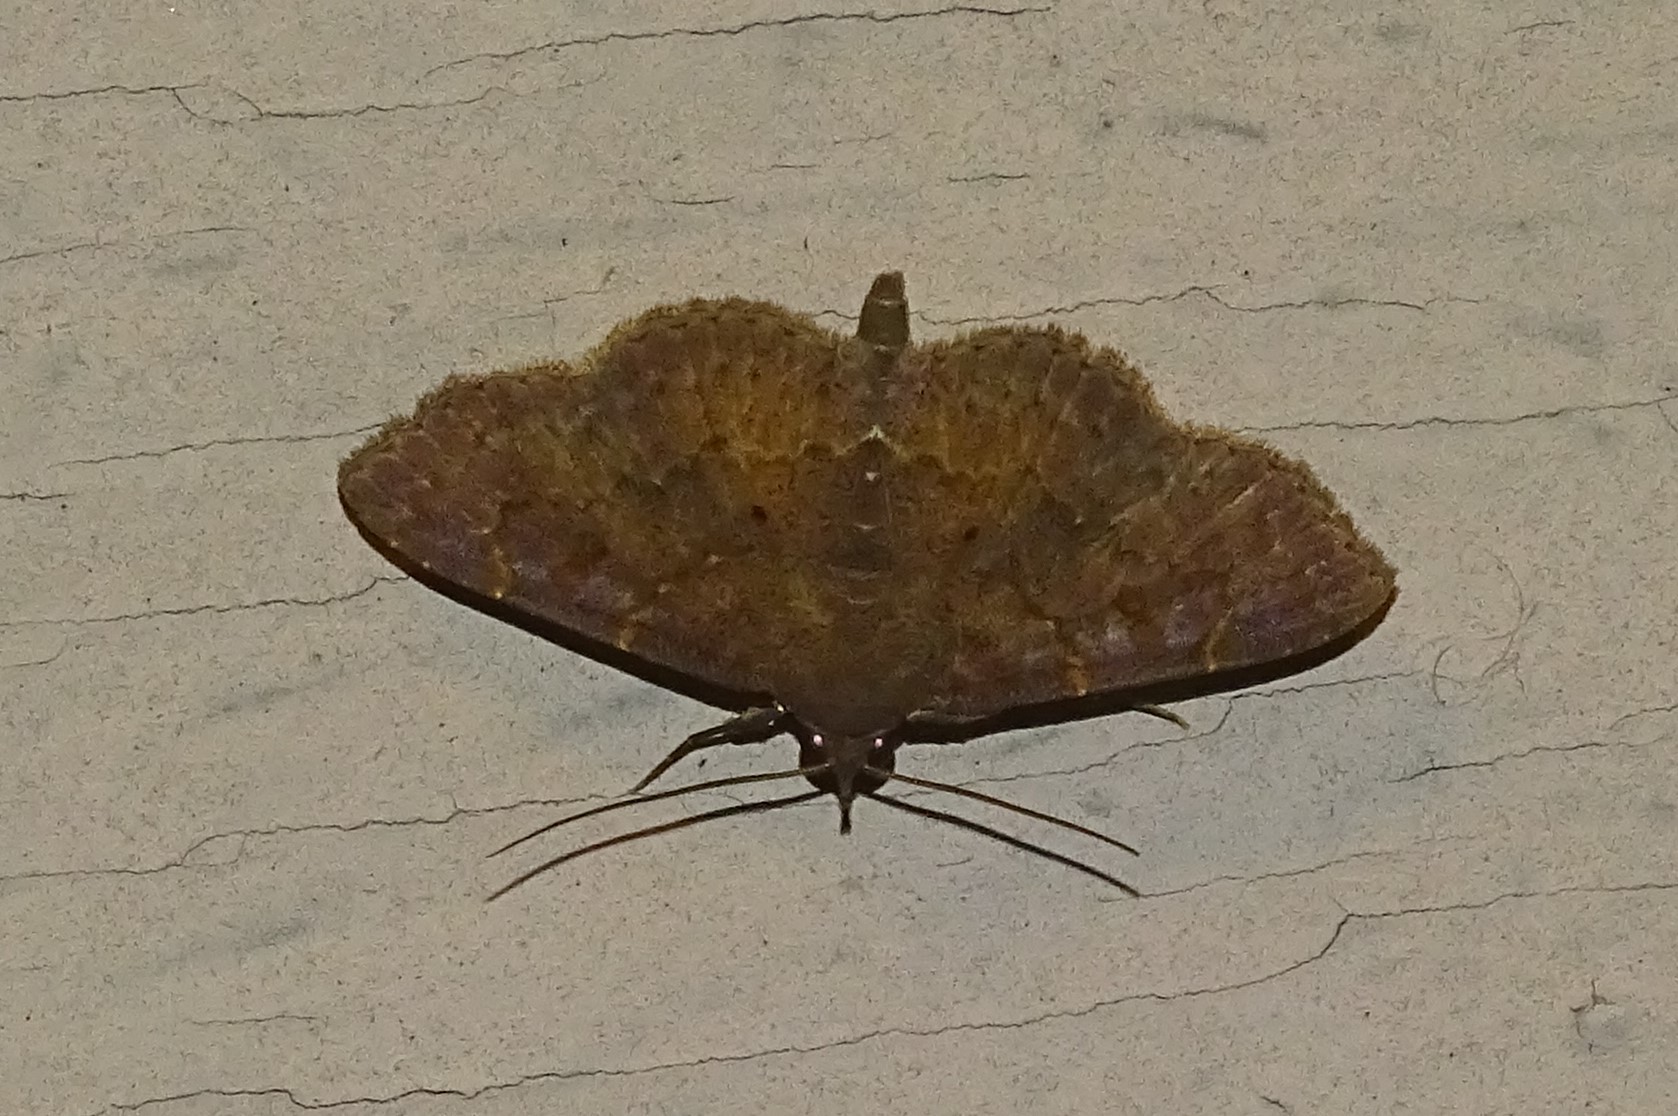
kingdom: Animalia
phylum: Arthropoda
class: Insecta
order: Lepidoptera
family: Erebidae
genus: Antiblemma
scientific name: Antiblemma perva
